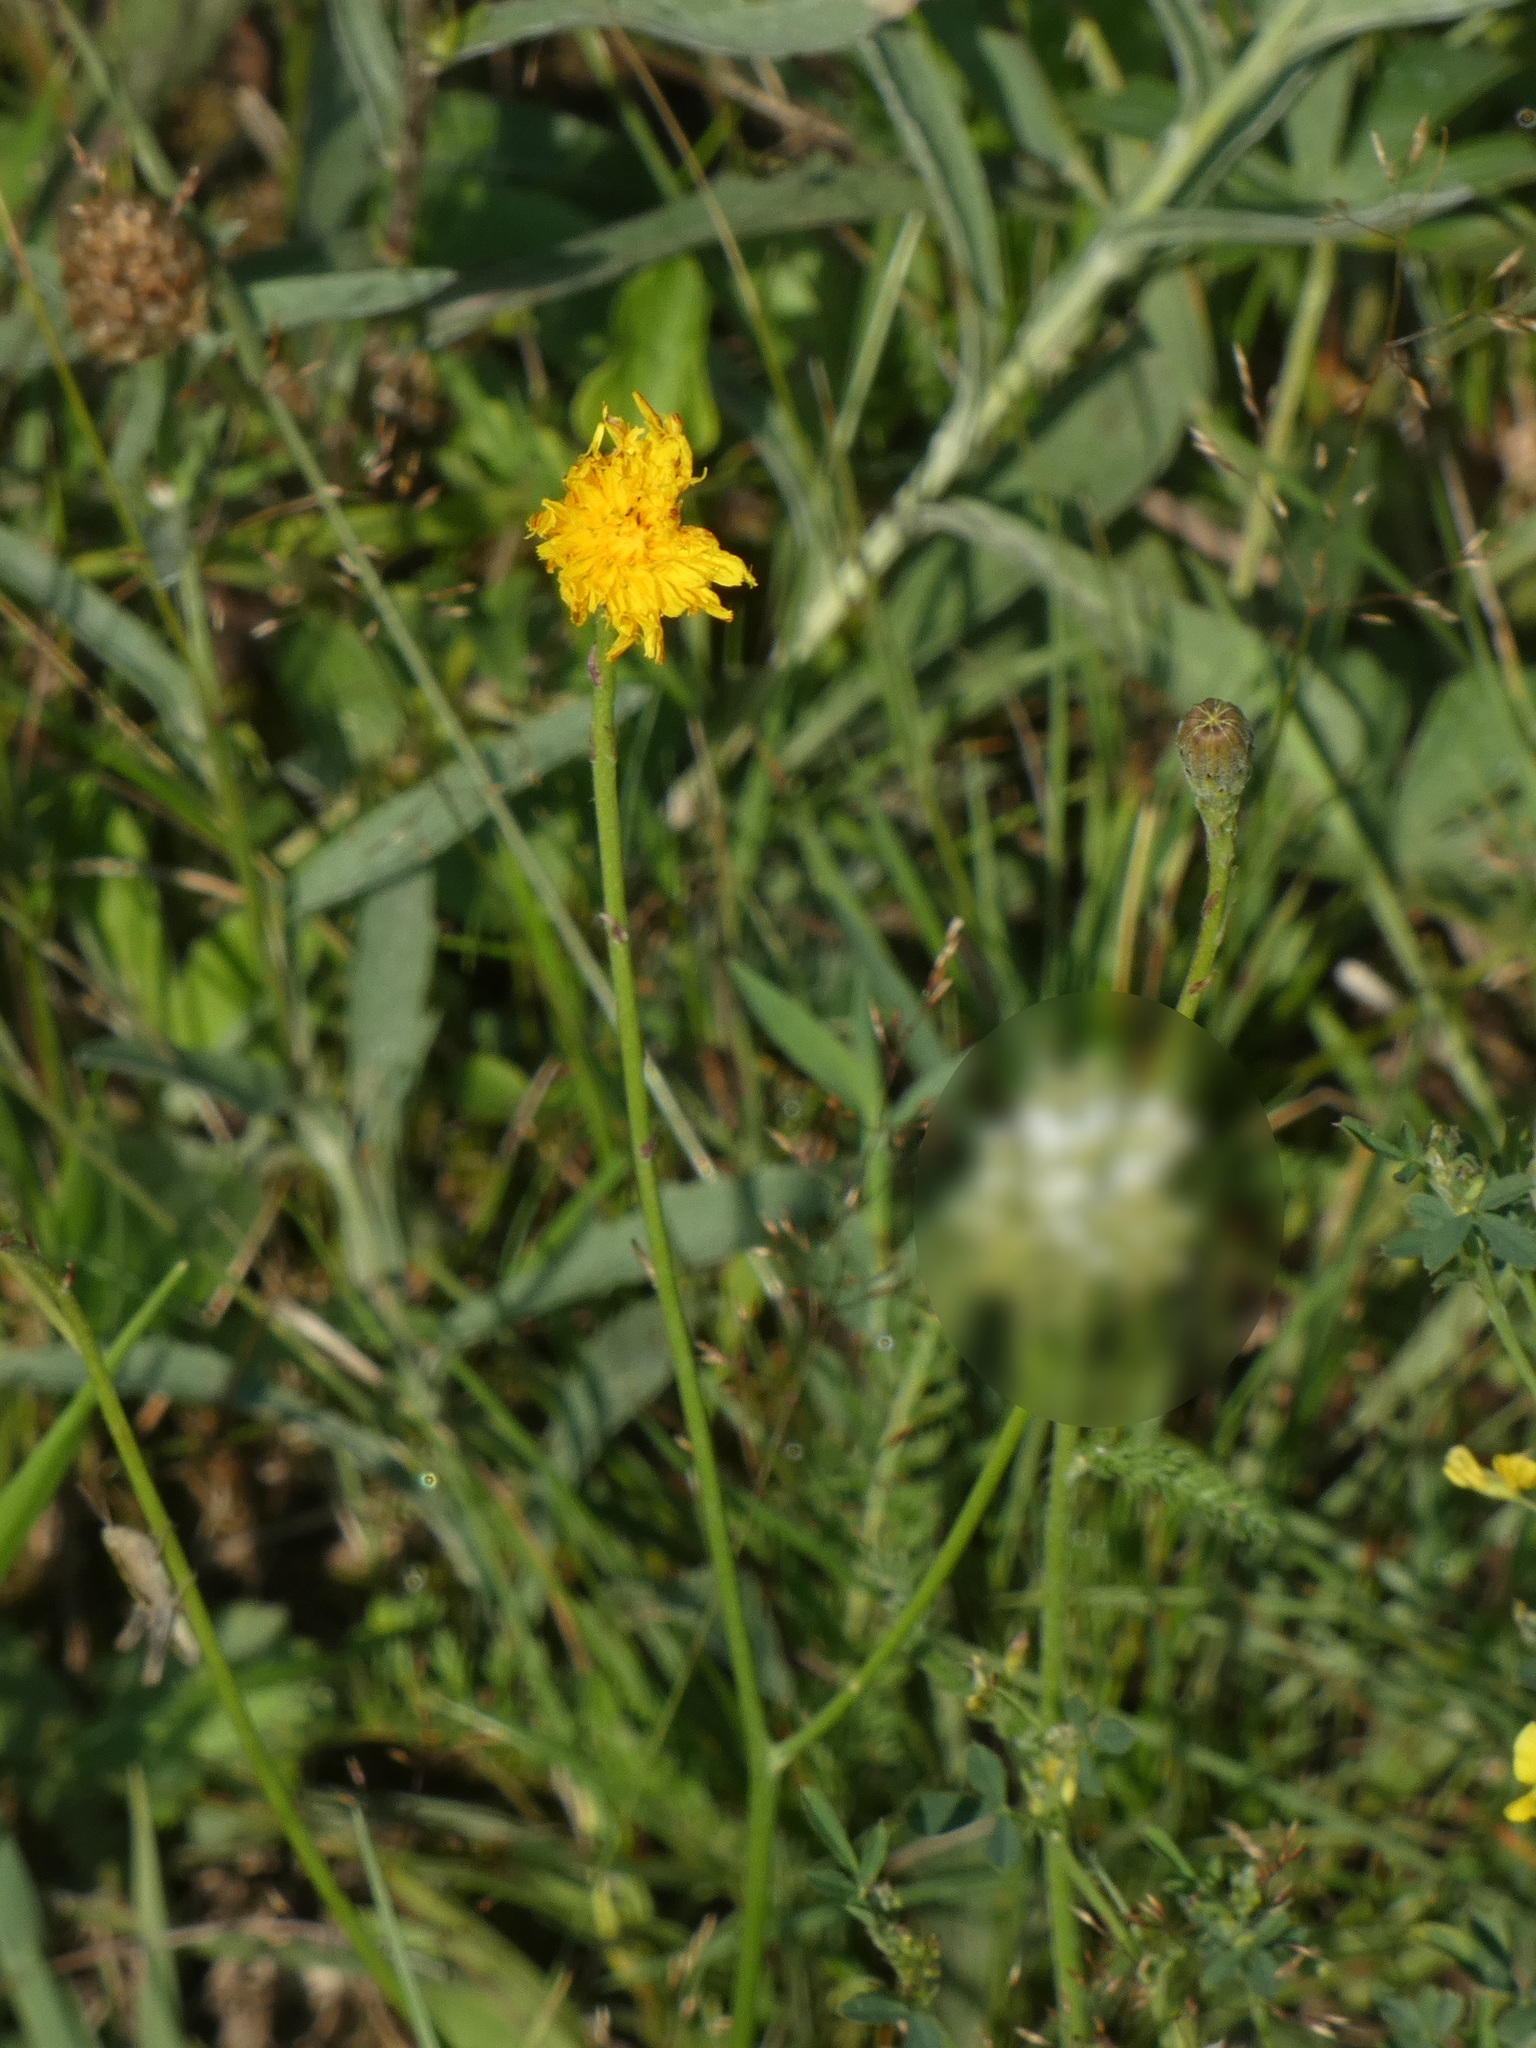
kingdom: Plantae
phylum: Tracheophyta
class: Magnoliopsida
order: Asterales
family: Asteraceae
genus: Scorzoneroides
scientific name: Scorzoneroides autumnalis
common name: Autumn hawkbit
